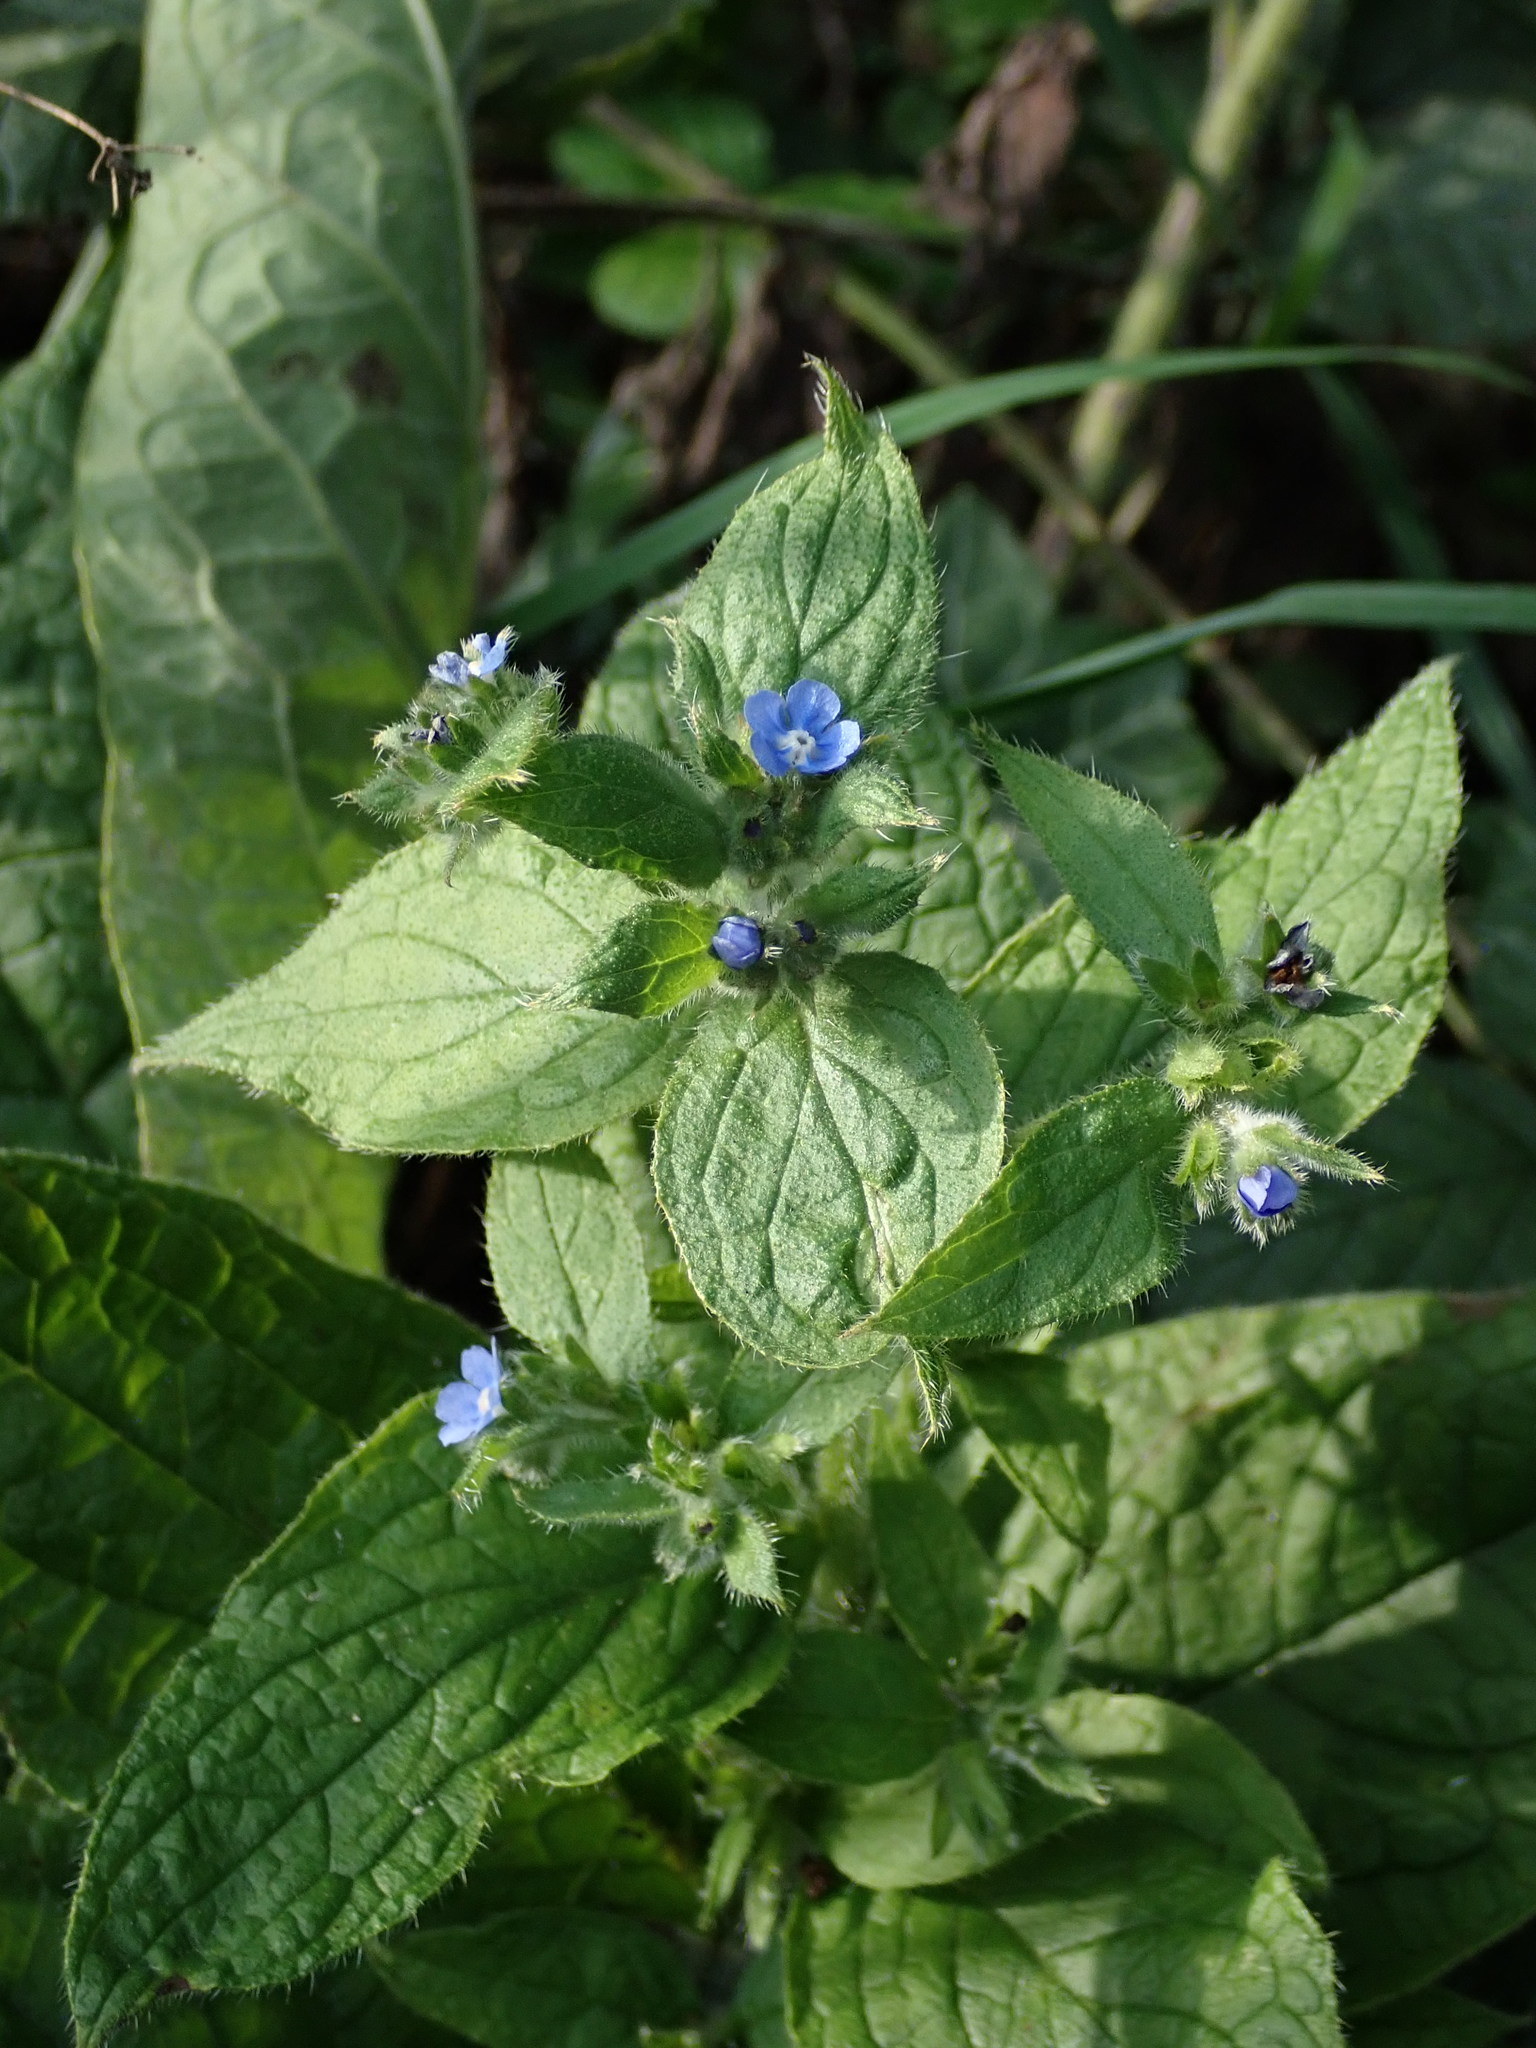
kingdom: Plantae
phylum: Tracheophyta
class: Magnoliopsida
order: Boraginales
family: Boraginaceae
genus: Pentaglottis
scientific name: Pentaglottis sempervirens
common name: Green alkanet
